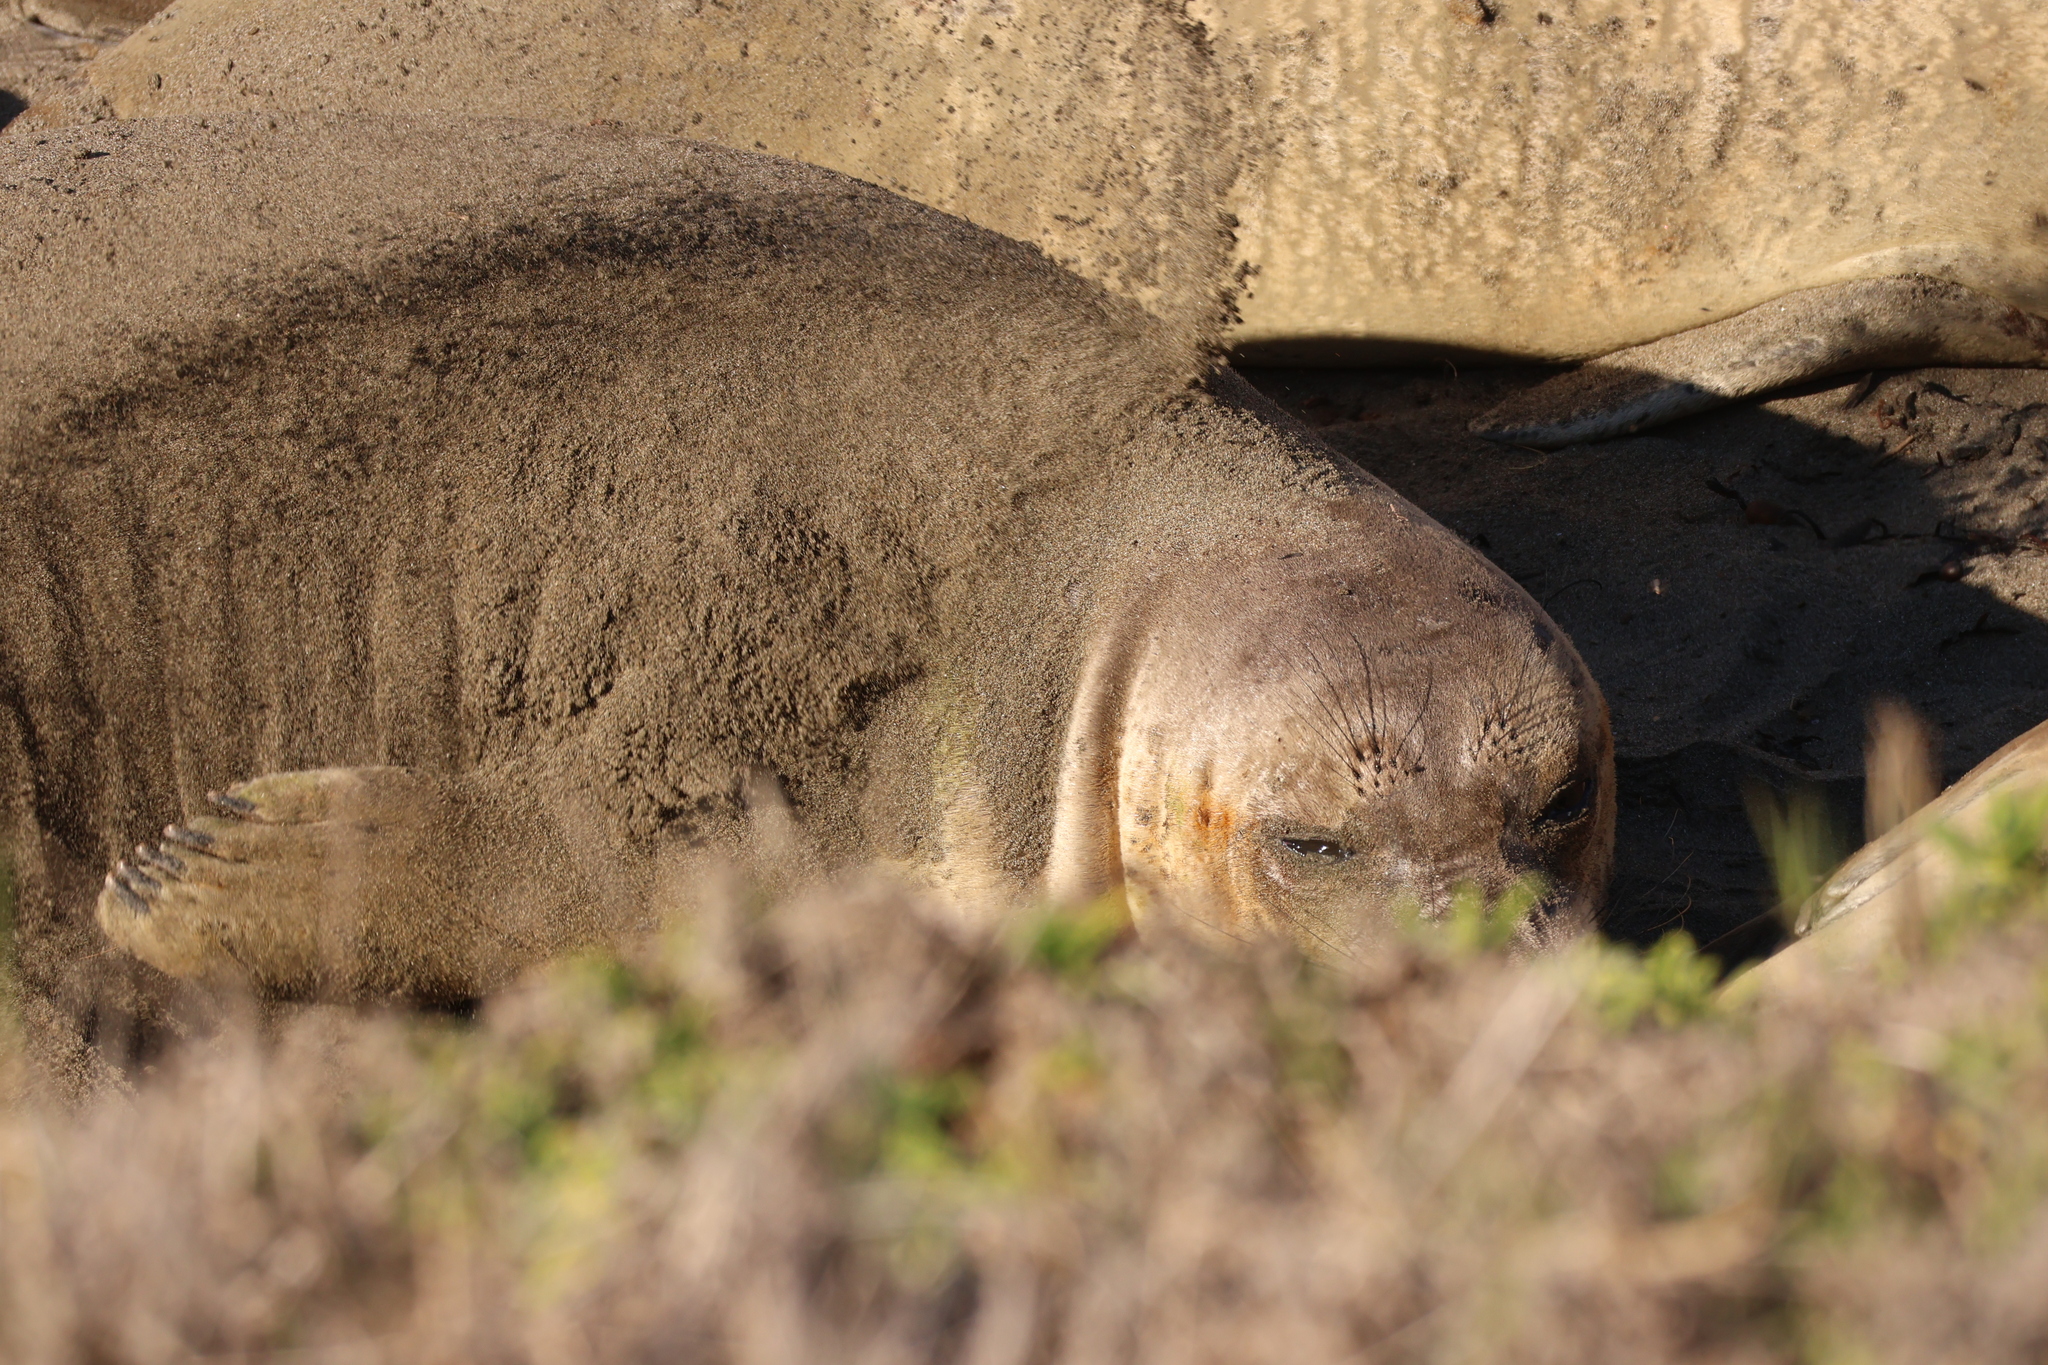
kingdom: Animalia
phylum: Chordata
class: Mammalia
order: Carnivora
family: Phocidae
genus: Mirounga
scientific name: Mirounga angustirostris
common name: Northern elephant seal
